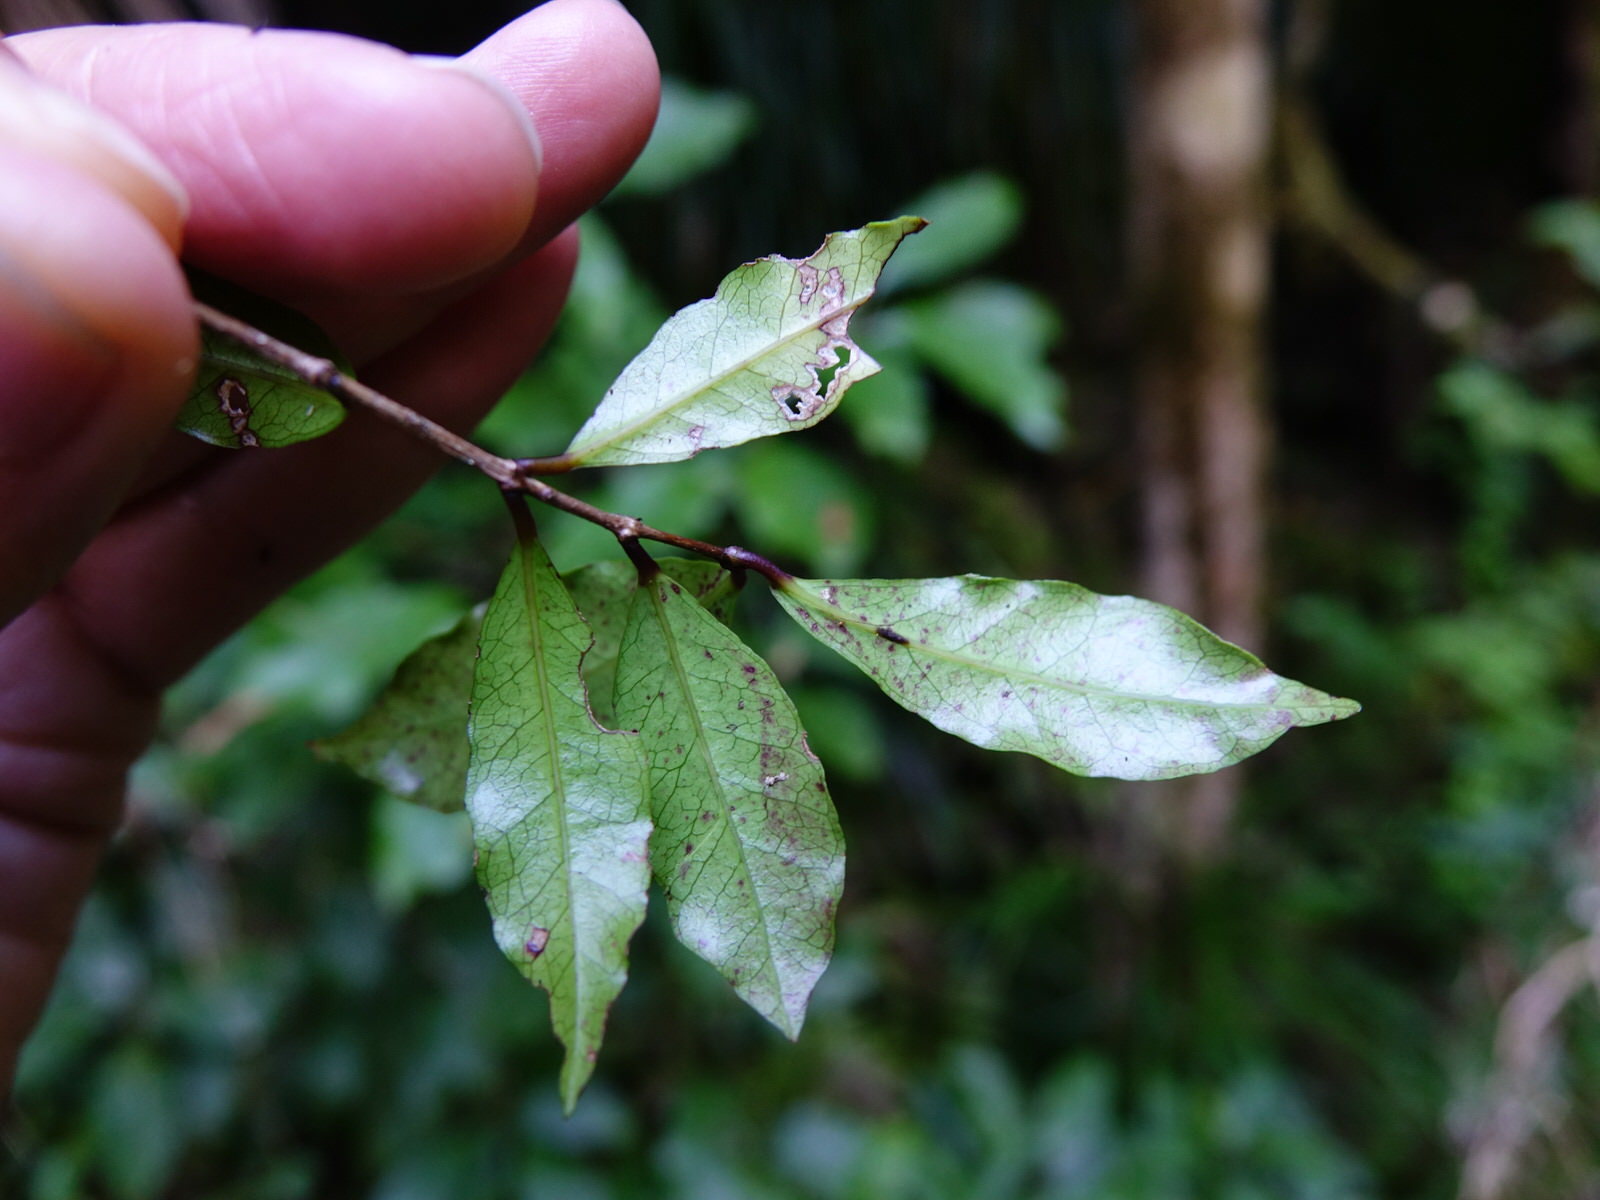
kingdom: Plantae
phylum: Tracheophyta
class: Magnoliopsida
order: Myrtales
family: Myrtaceae
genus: Syzygium
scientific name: Syzygium maire
